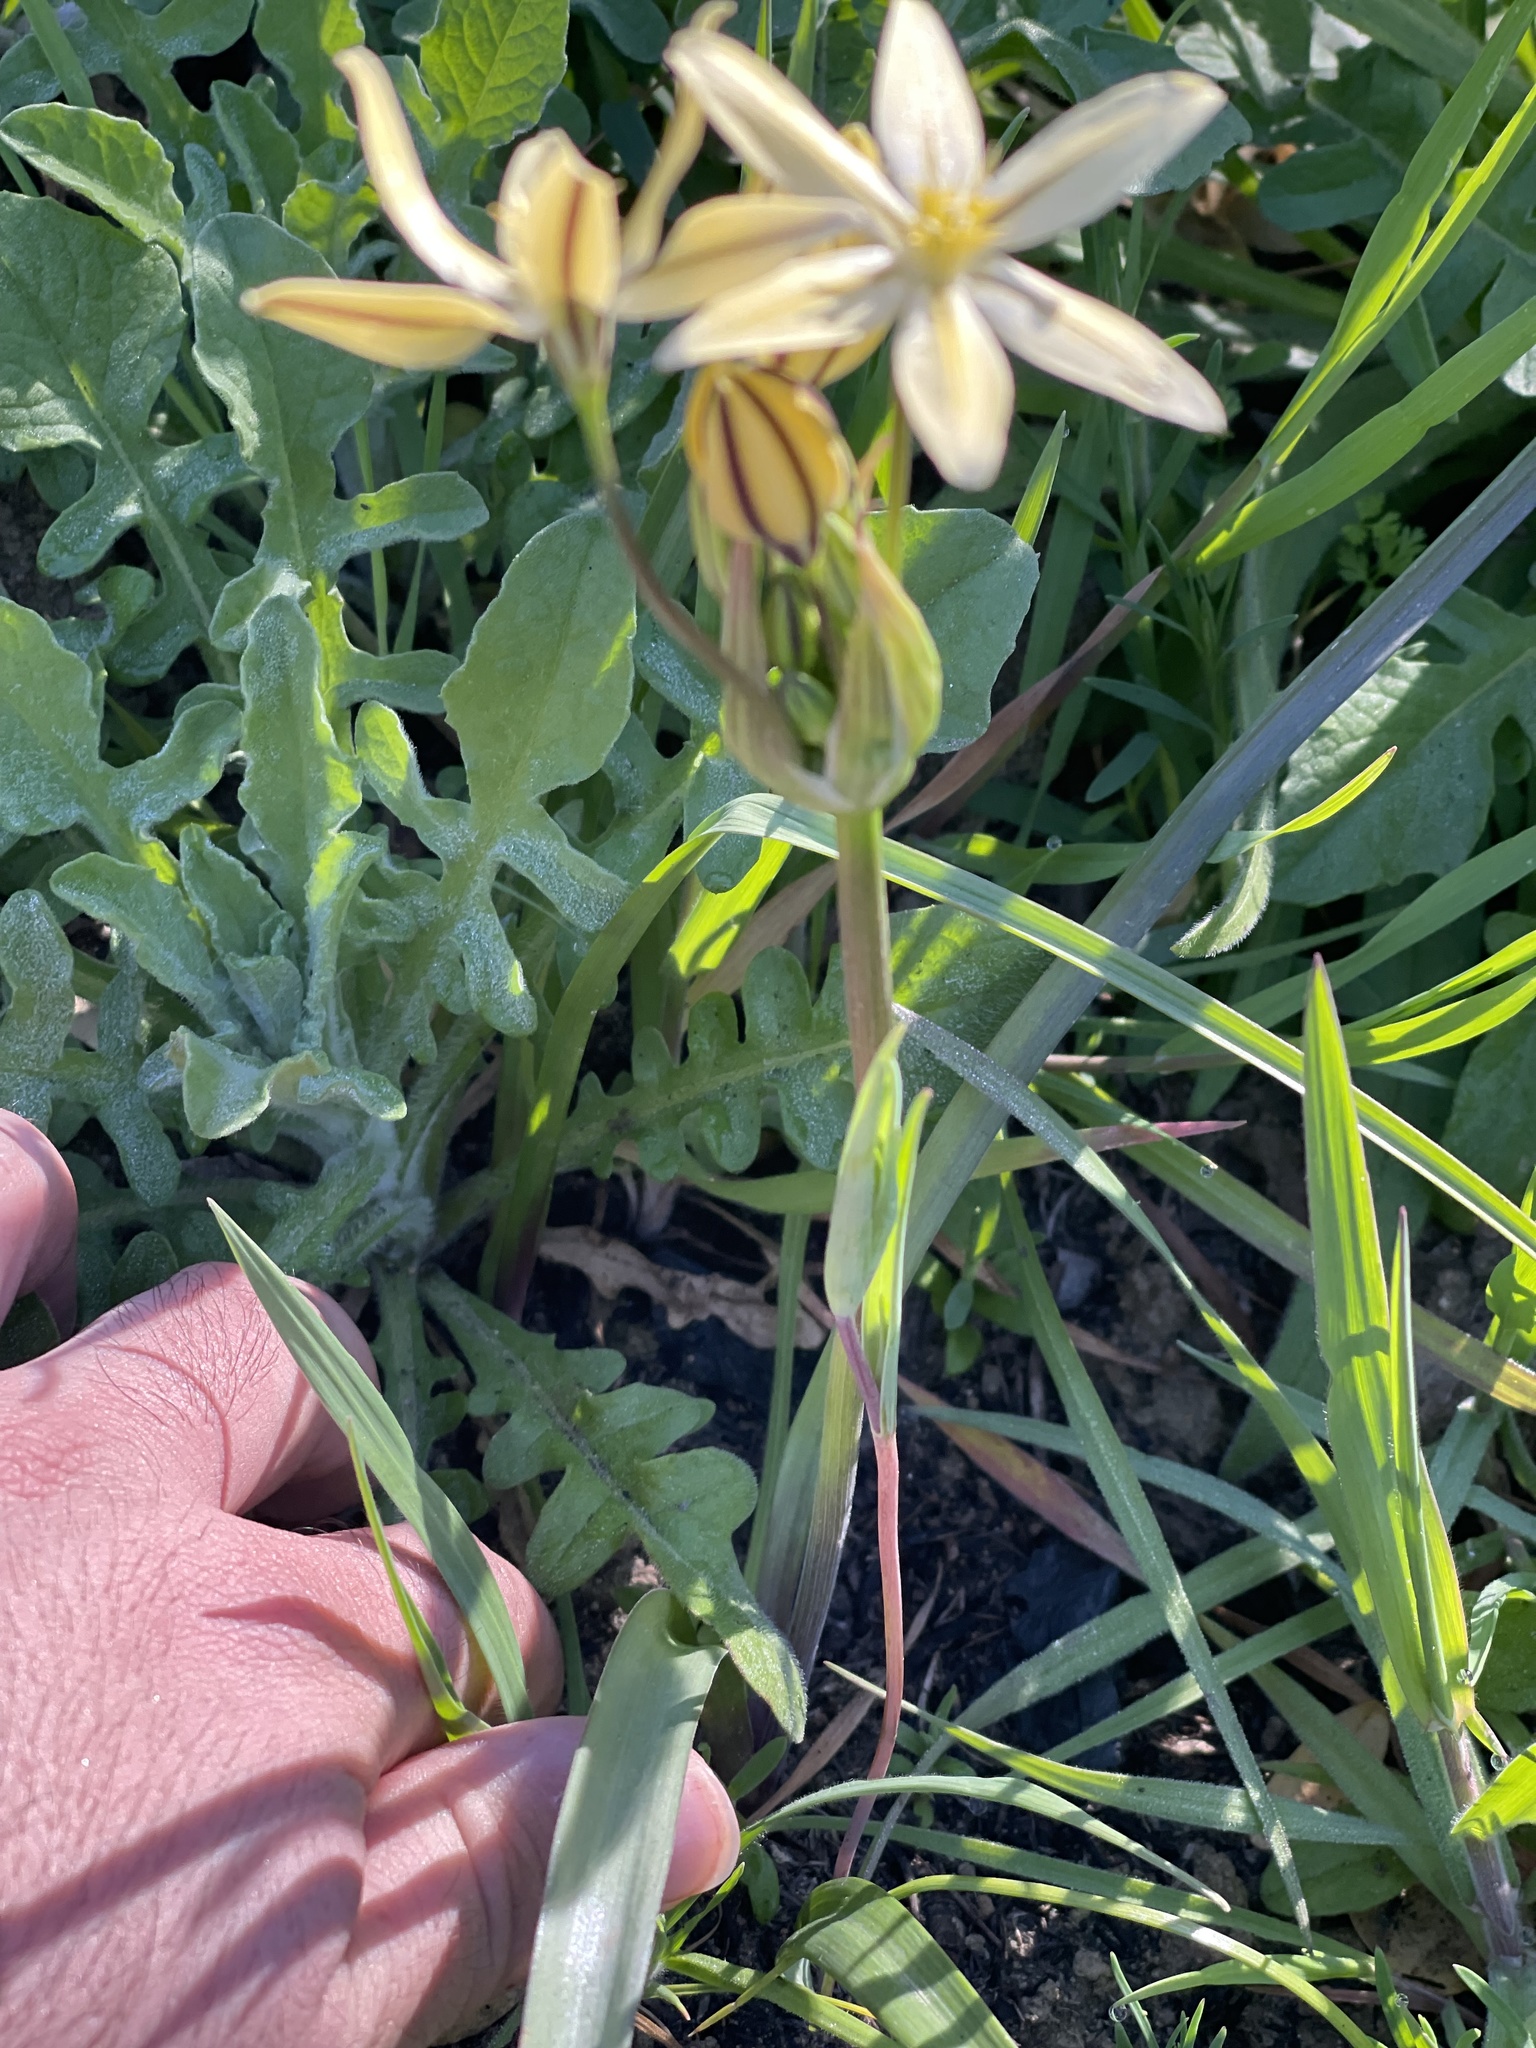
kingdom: Plantae
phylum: Tracheophyta
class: Liliopsida
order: Asparagales
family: Asparagaceae
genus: Triteleia
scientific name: Triteleia ixioides
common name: Yellow-brodiaea
